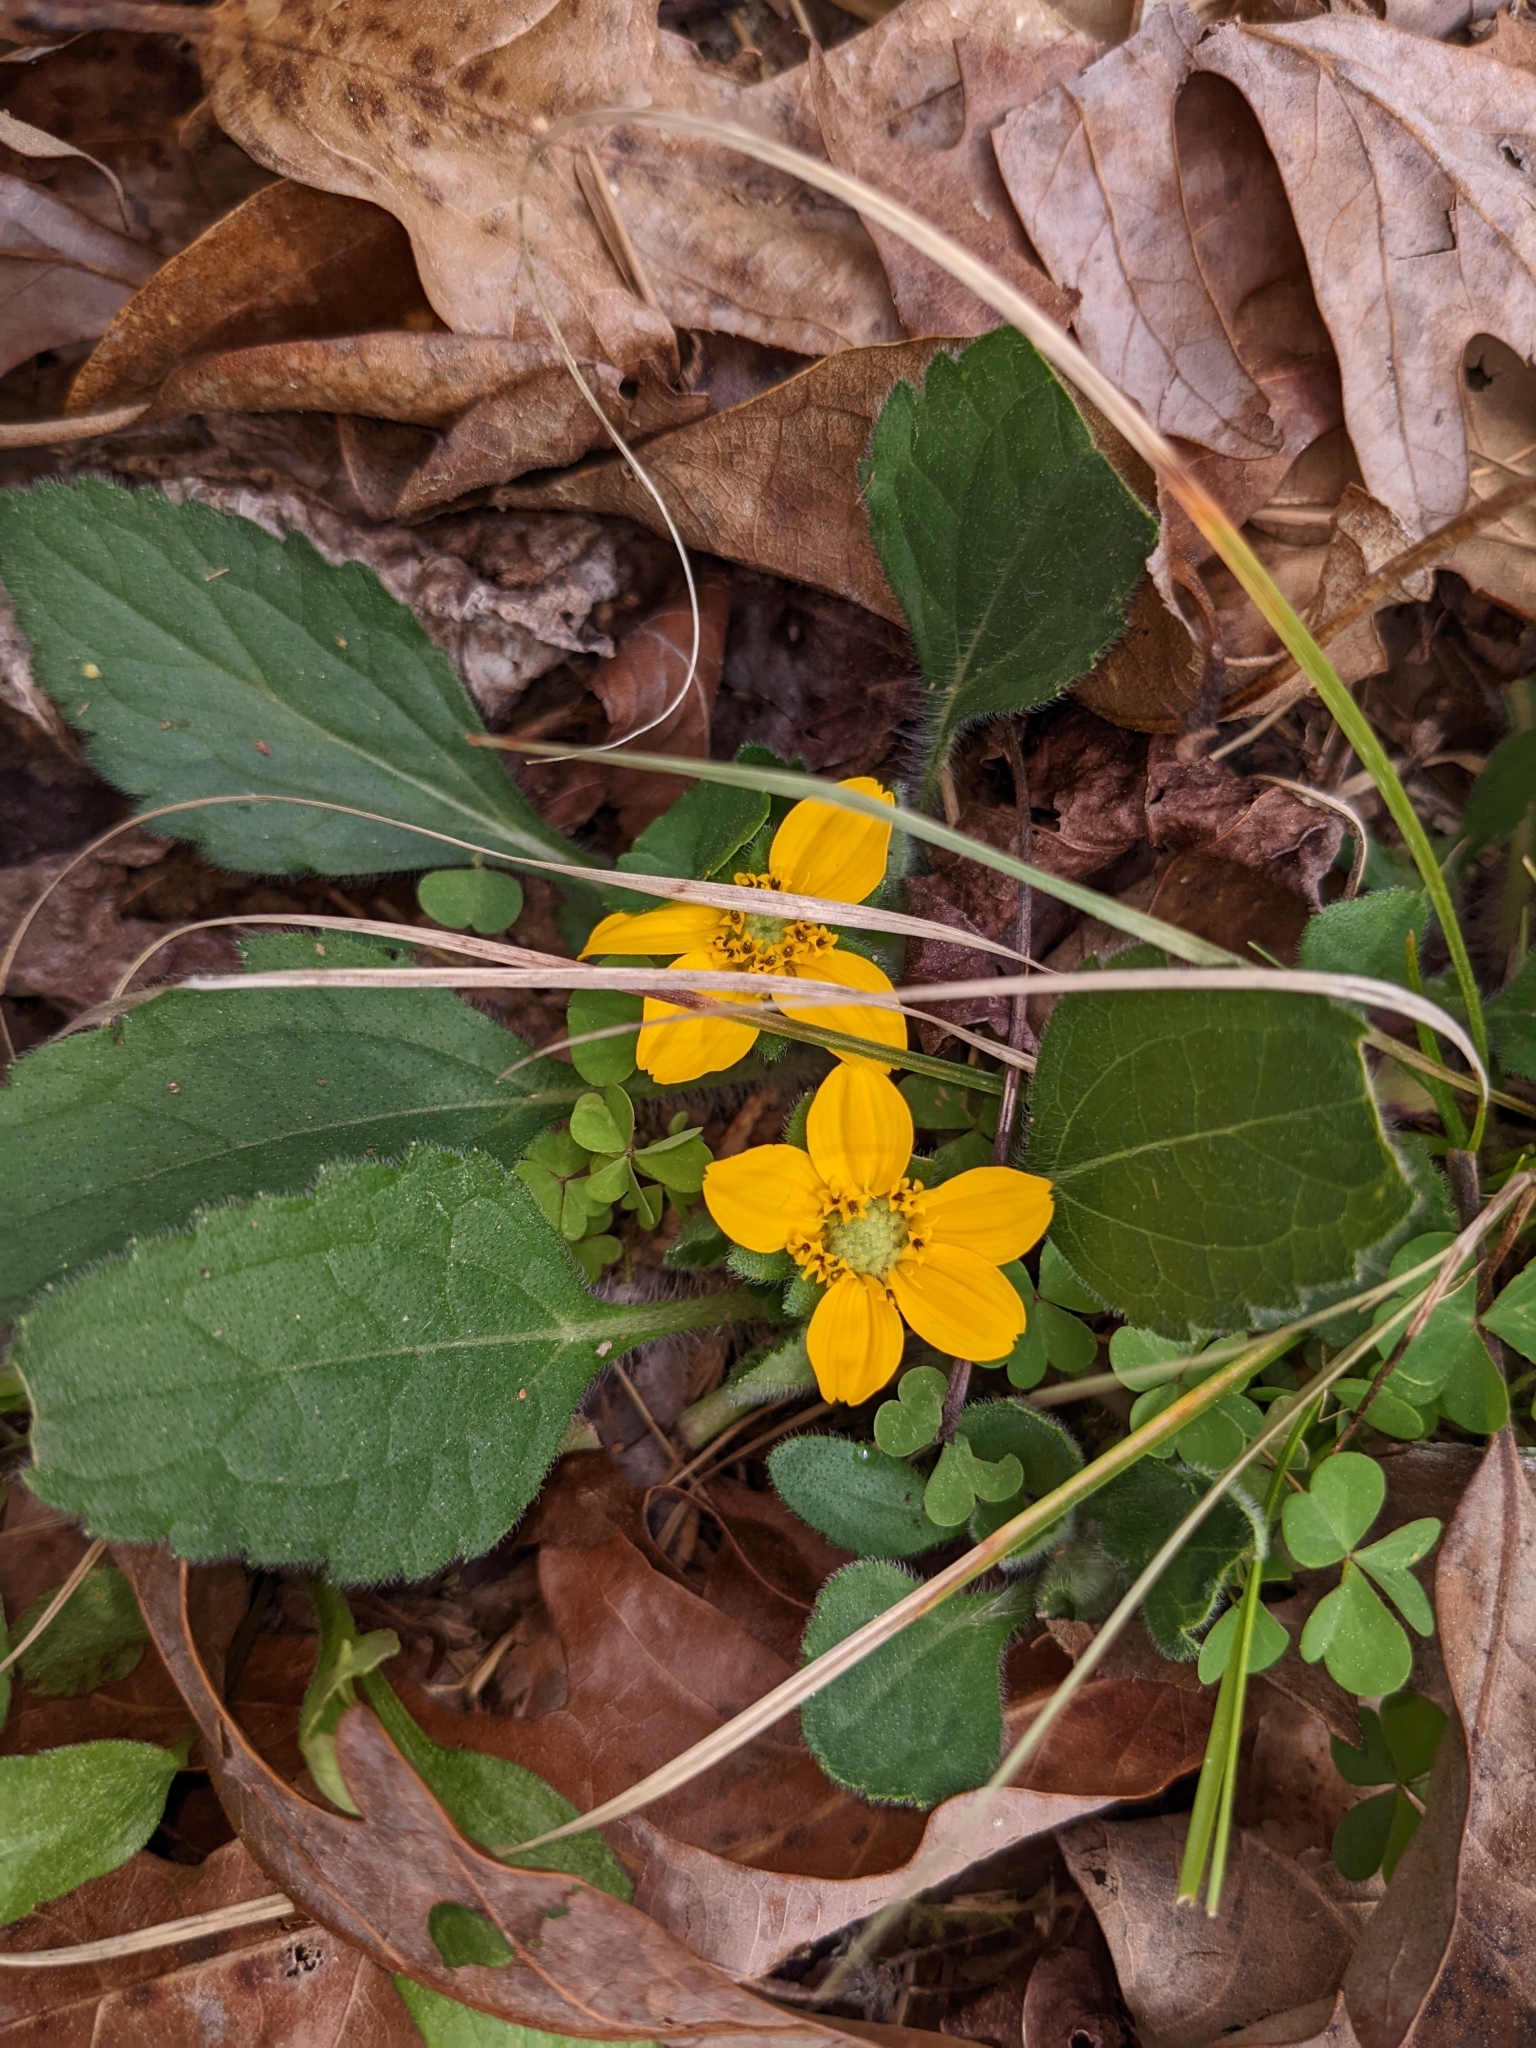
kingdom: Plantae
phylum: Tracheophyta
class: Magnoliopsida
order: Asterales
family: Asteraceae
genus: Chrysogonum
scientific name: Chrysogonum virginianum
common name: Golden-knee
